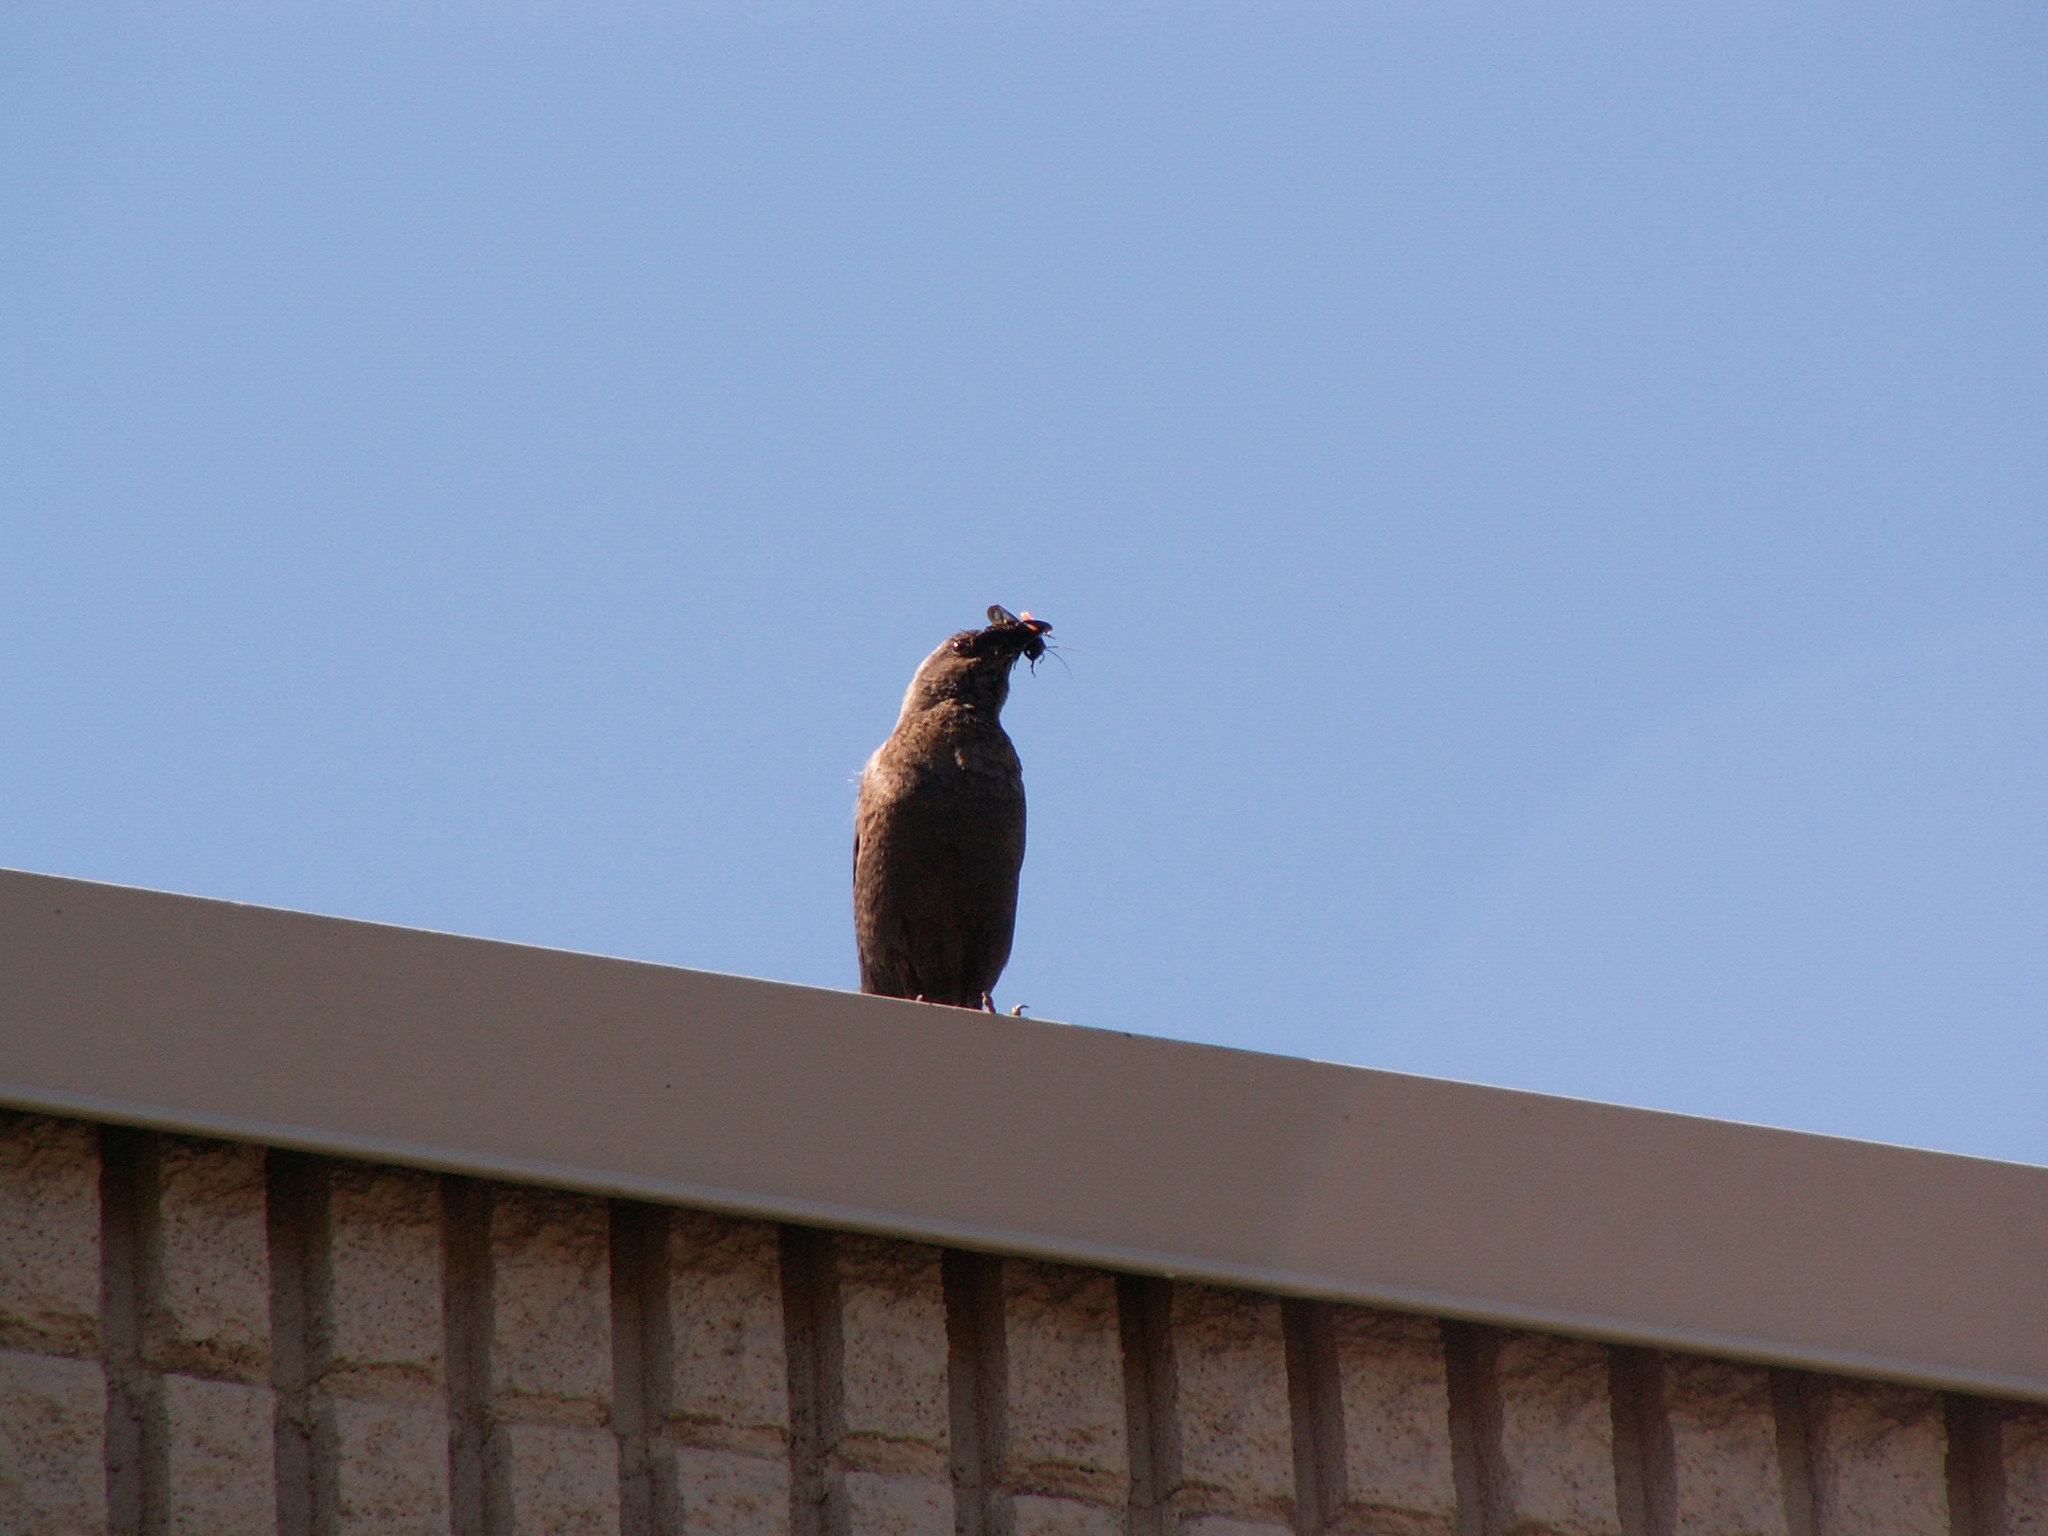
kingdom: Animalia
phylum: Chordata
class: Aves
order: Passeriformes
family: Icteridae
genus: Euphagus
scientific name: Euphagus cyanocephalus
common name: Brewer's blackbird
